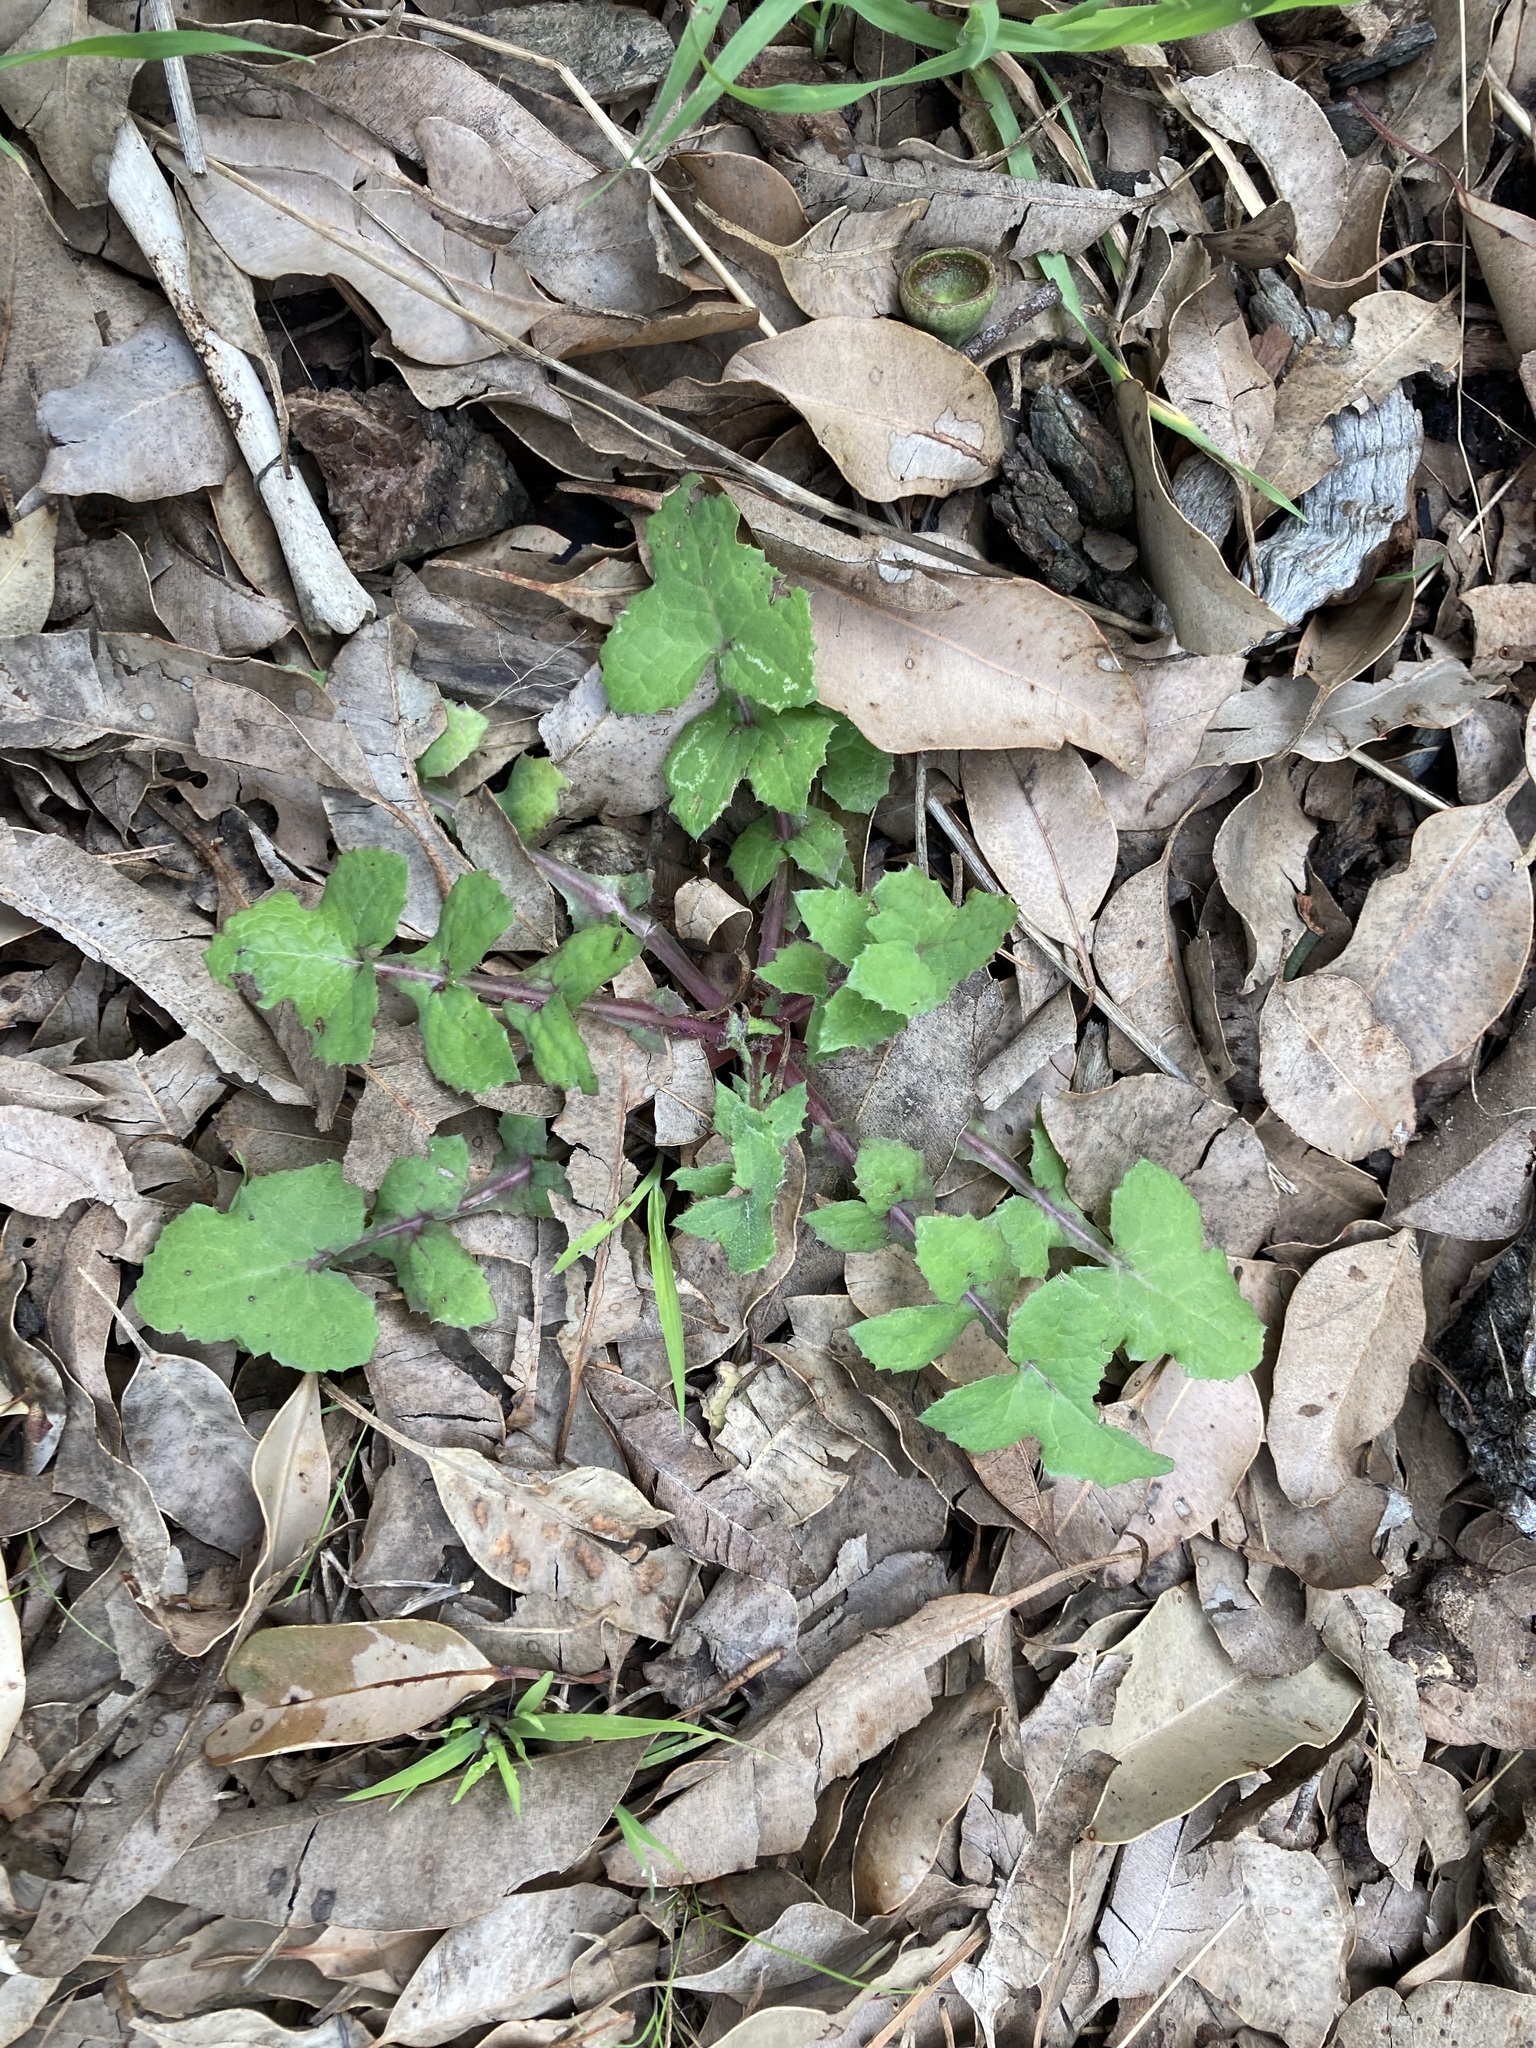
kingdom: Plantae
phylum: Tracheophyta
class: Magnoliopsida
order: Asterales
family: Asteraceae
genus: Sonchus
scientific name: Sonchus oleraceus
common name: Common sowthistle
